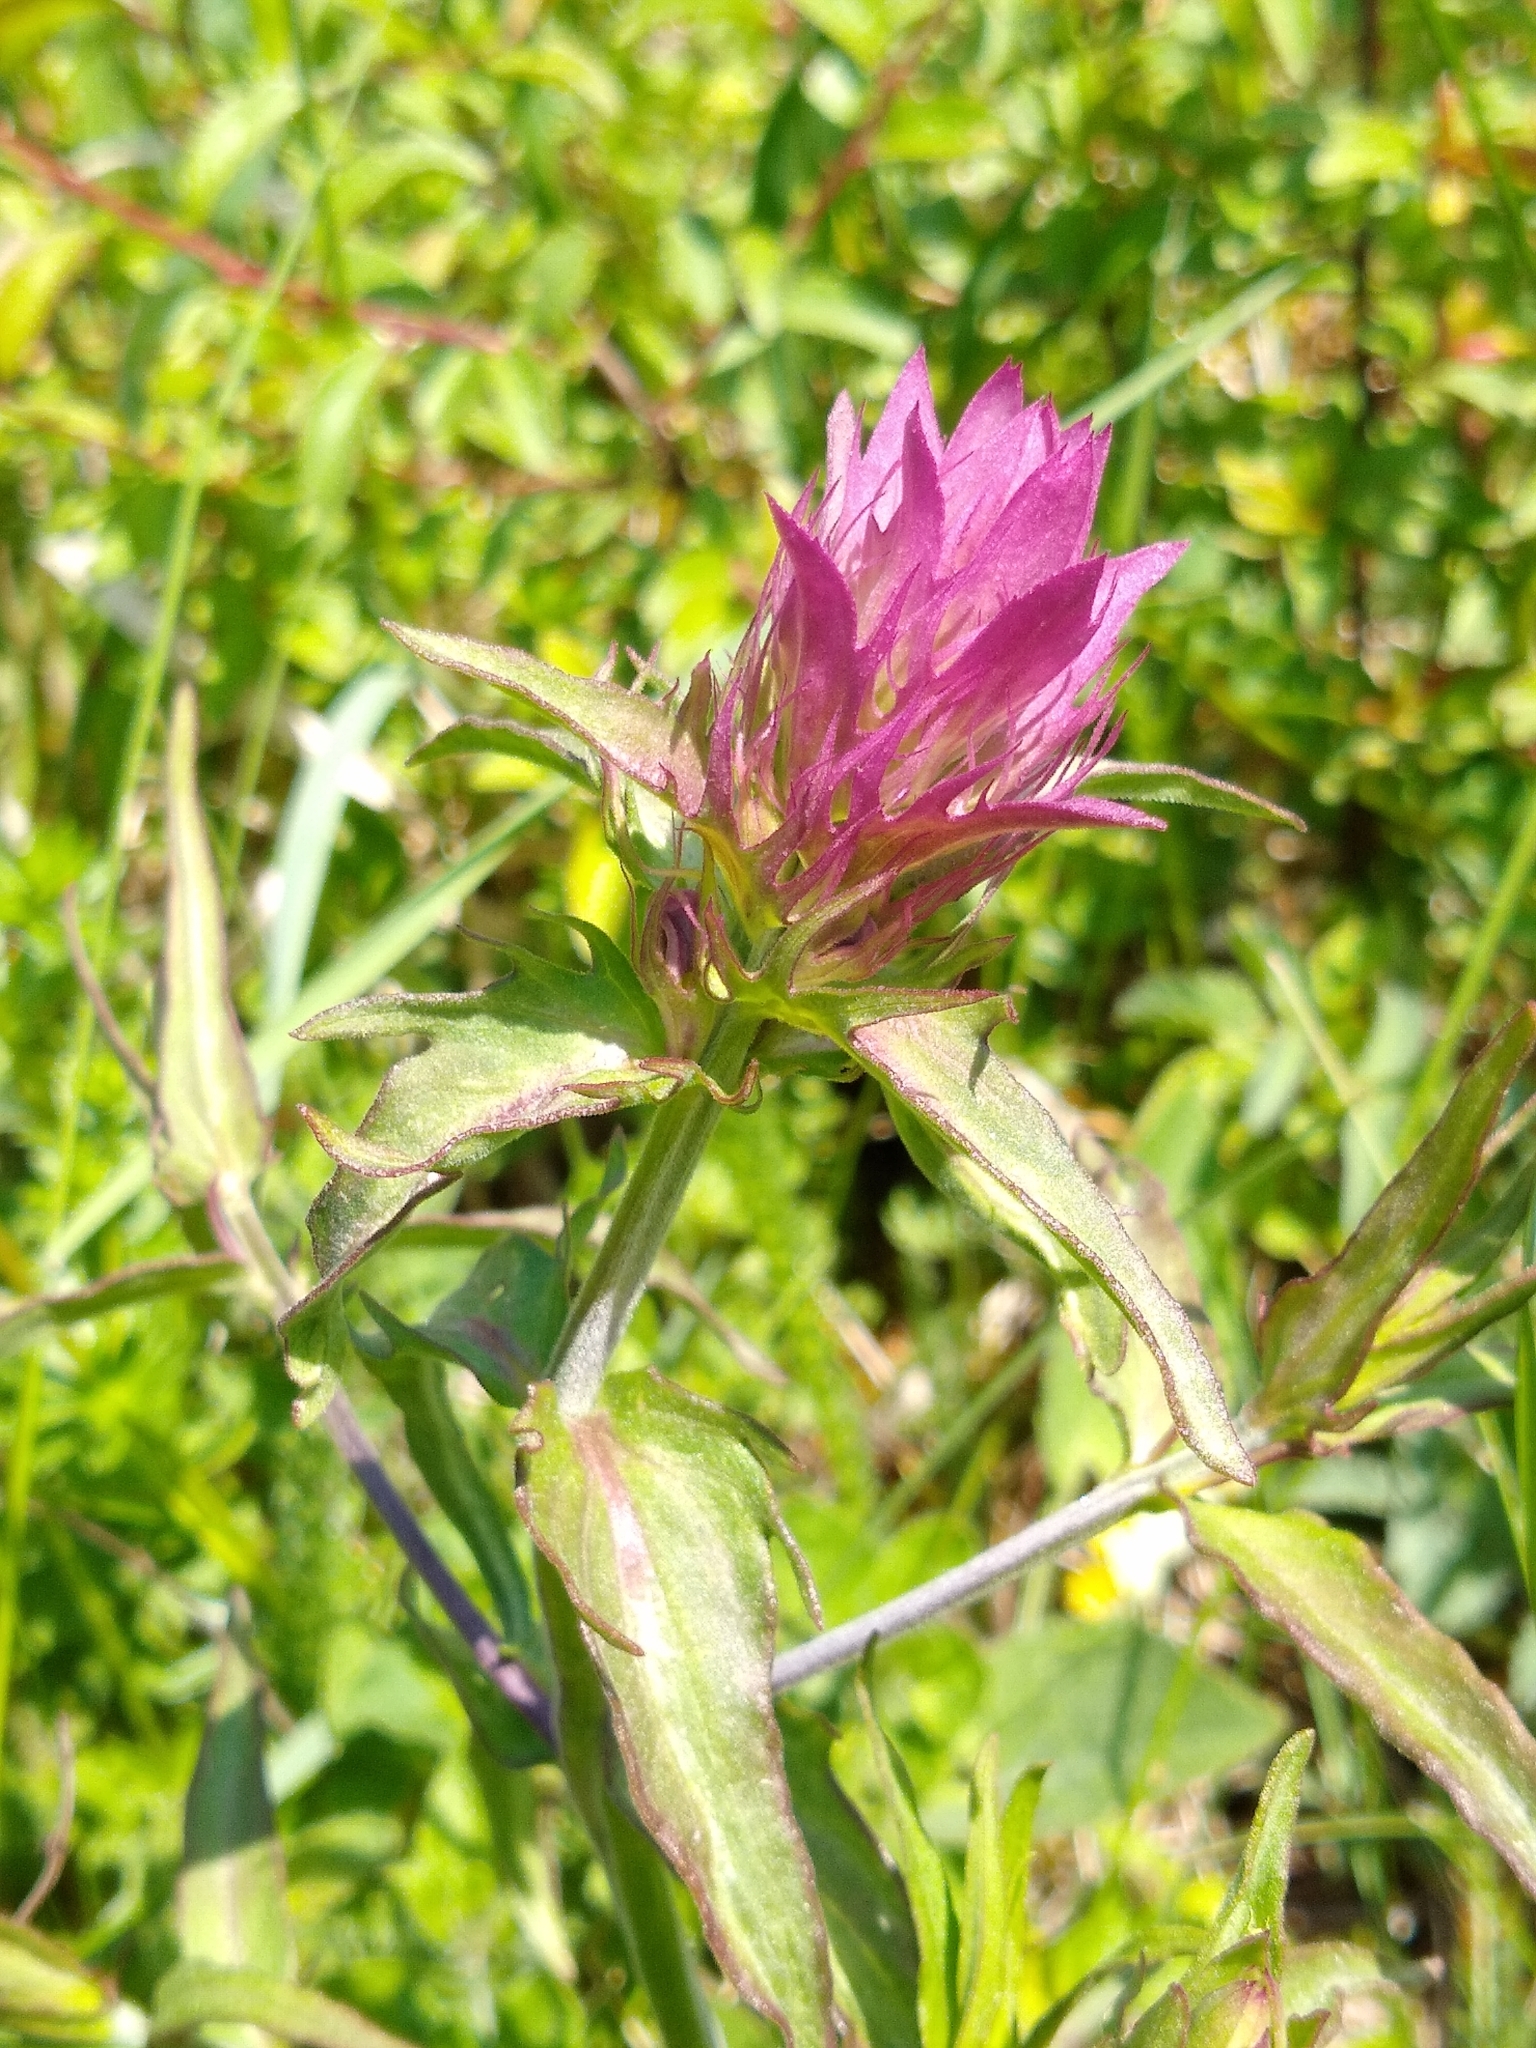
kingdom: Plantae
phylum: Tracheophyta
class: Magnoliopsida
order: Lamiales
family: Orobanchaceae
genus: Melampyrum
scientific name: Melampyrum arvense
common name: Field cow-wheat
